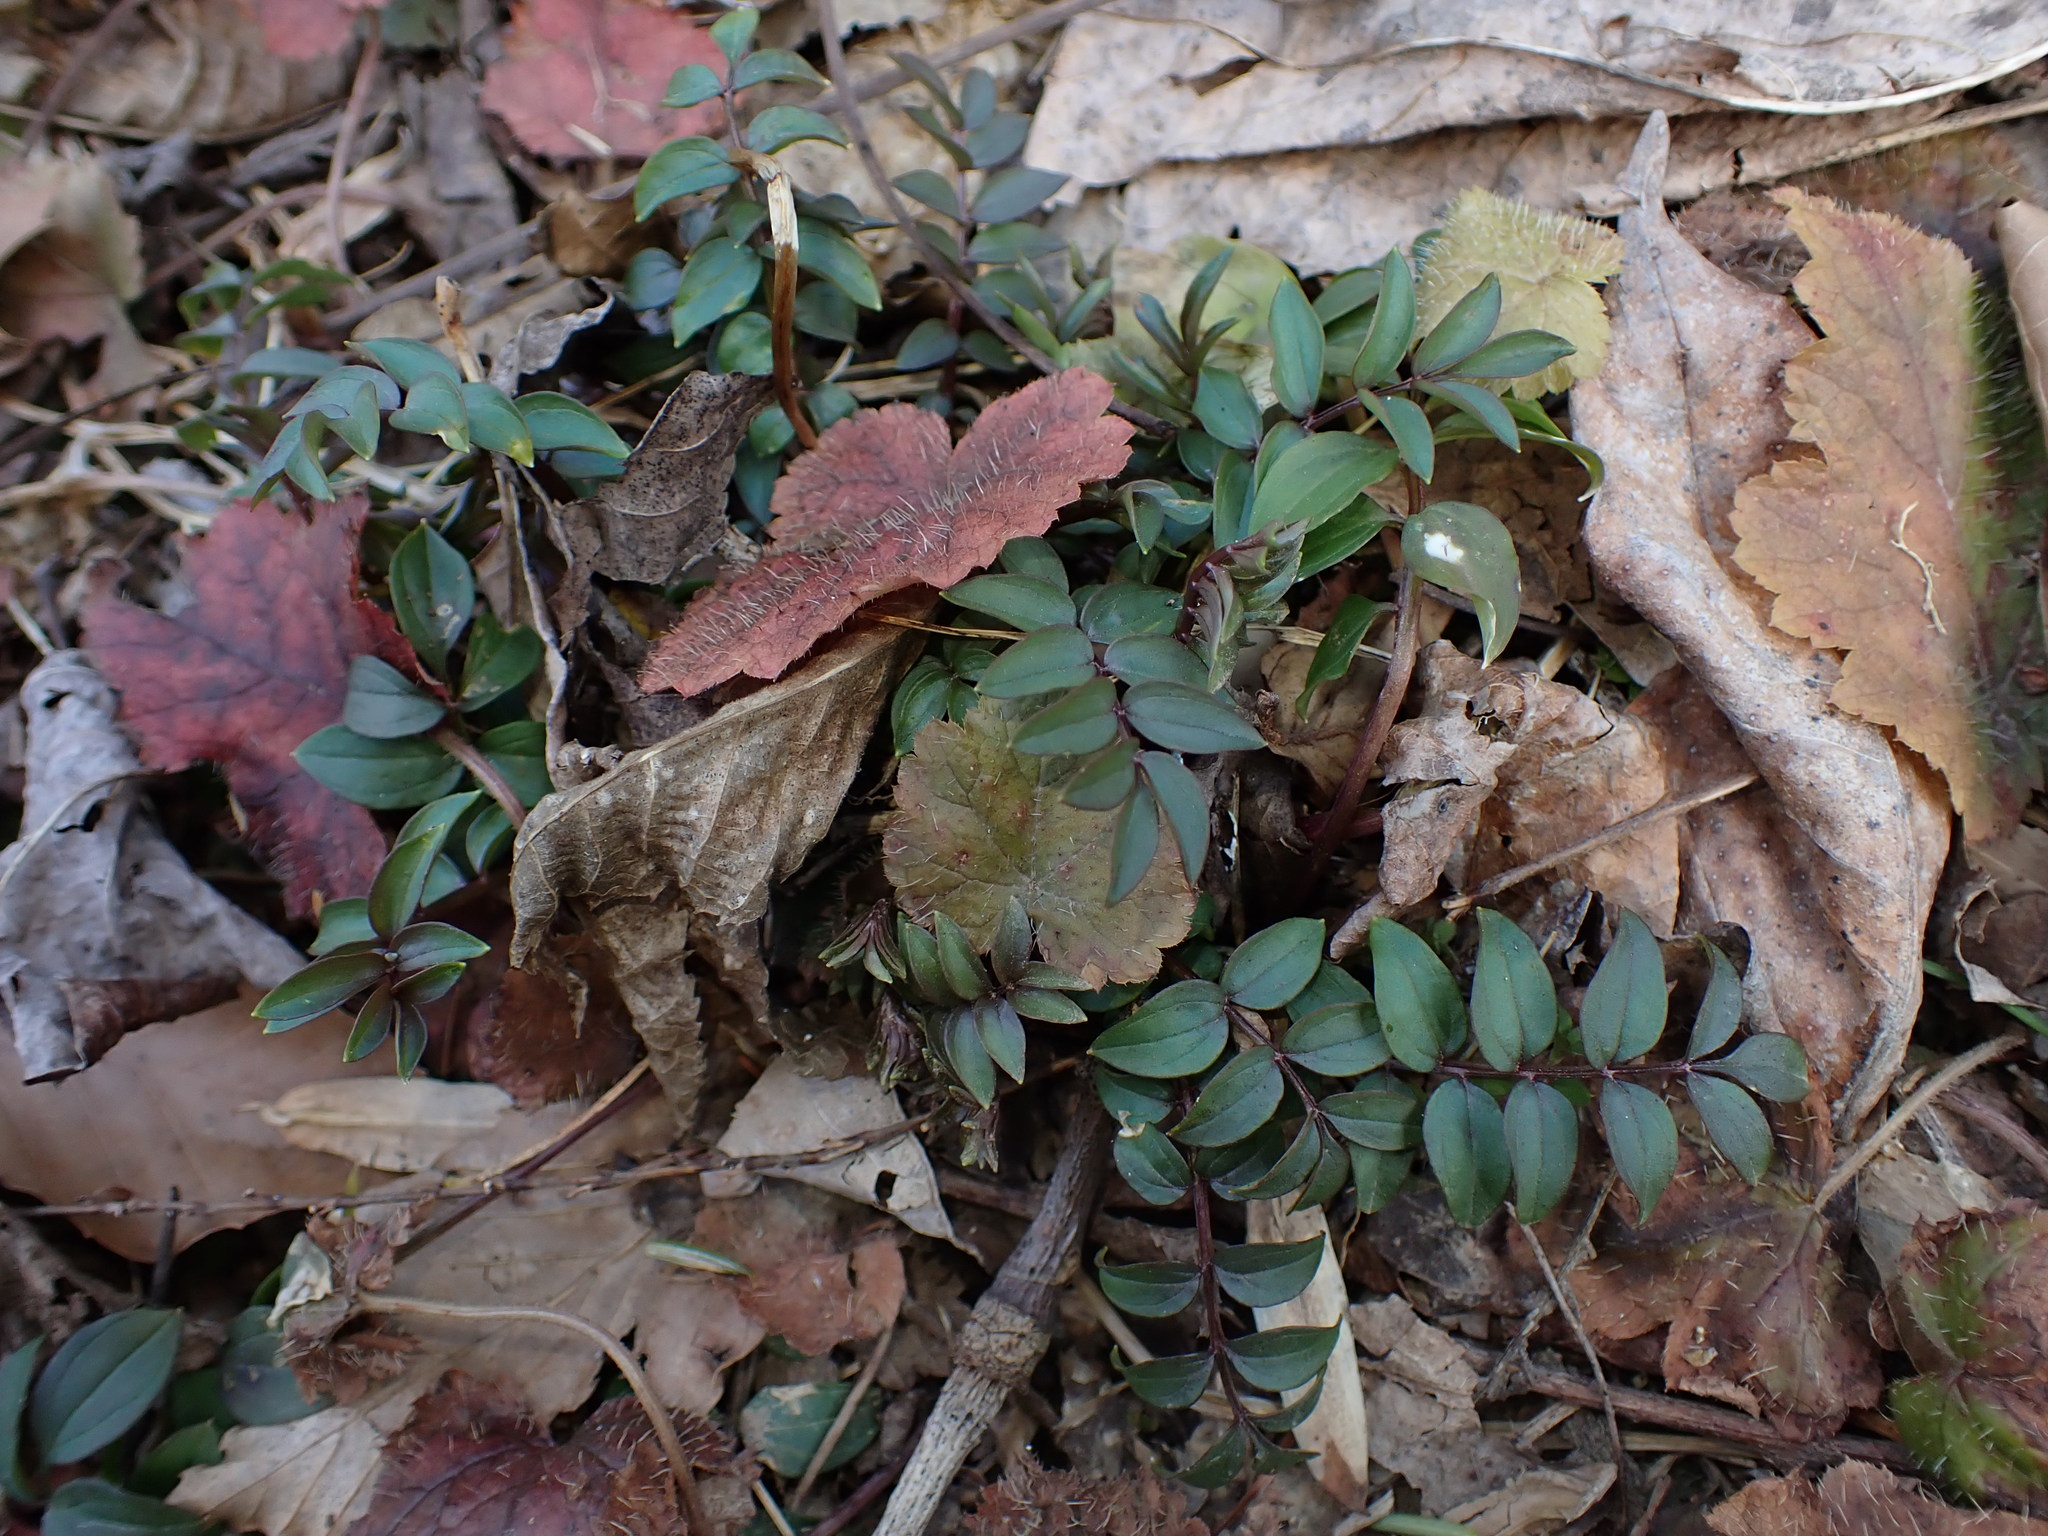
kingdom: Plantae
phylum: Tracheophyta
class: Magnoliopsida
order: Ericales
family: Polemoniaceae
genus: Polemonium
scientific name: Polemonium reptans
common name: Creeping jacob's-ladder
